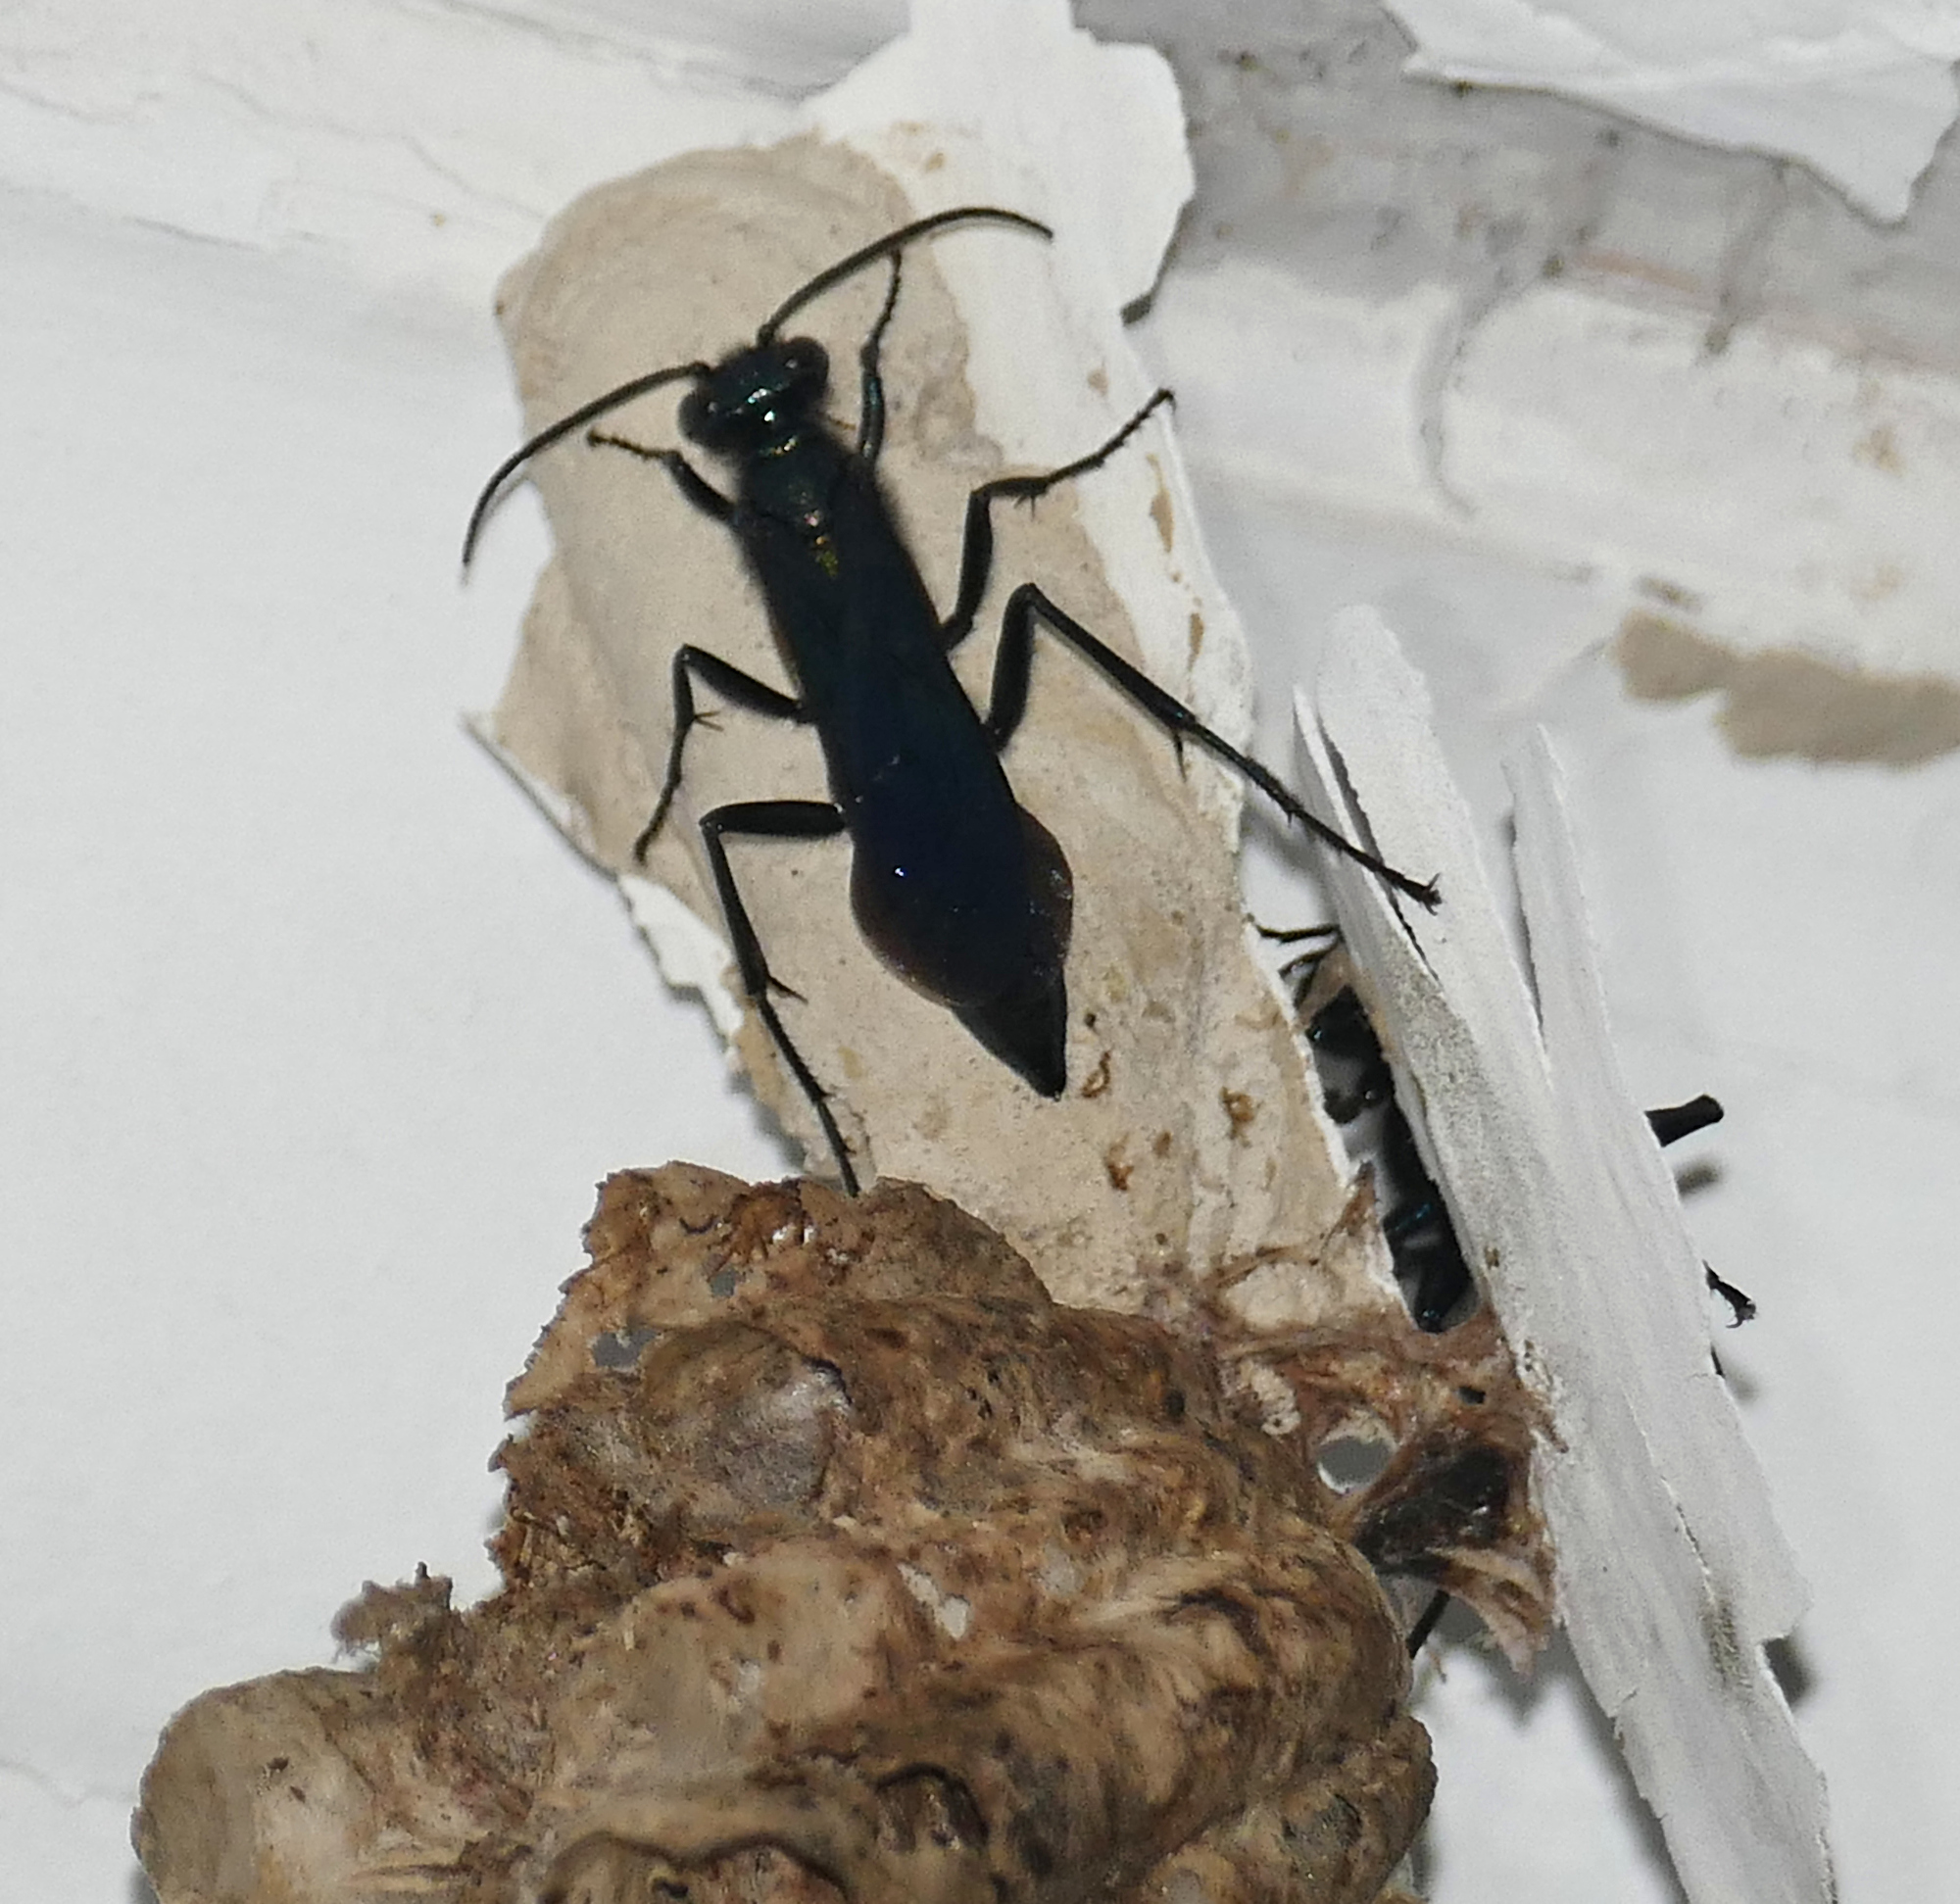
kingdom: Animalia
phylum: Arthropoda
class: Insecta
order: Hymenoptera
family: Sphecidae
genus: Chalybion
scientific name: Chalybion californicum
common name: Mud dauber
